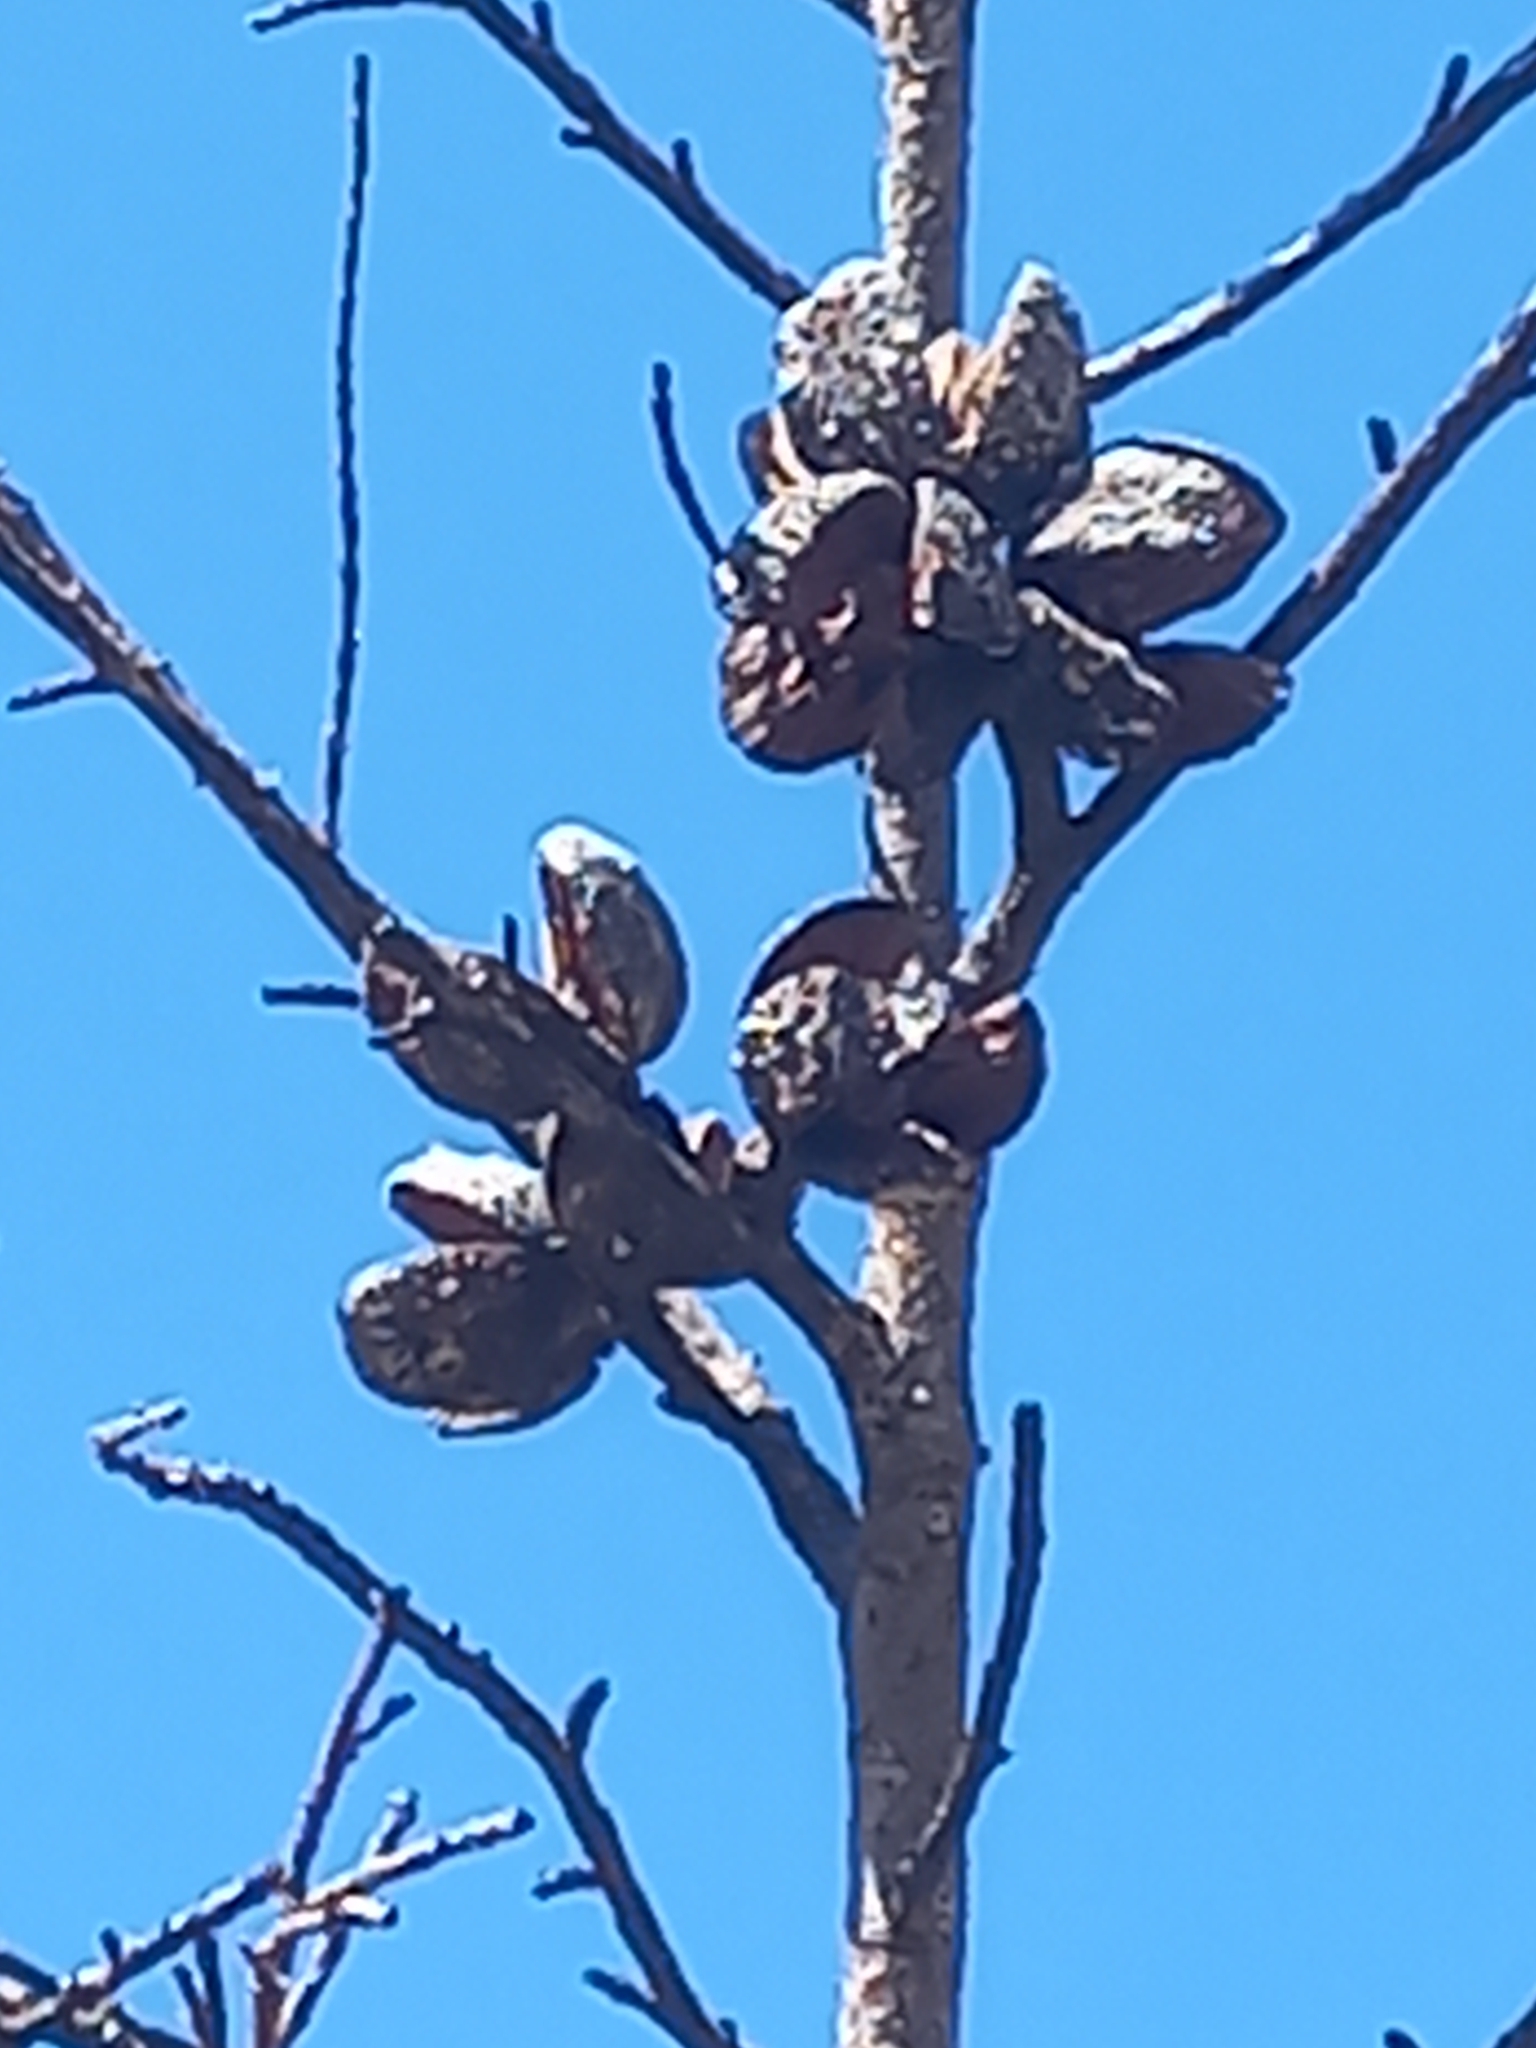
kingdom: Plantae
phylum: Tracheophyta
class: Pinopsida
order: Pinales
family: Cupressaceae
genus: Widdringtonia
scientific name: Widdringtonia nodiflora
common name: Cape cypress
